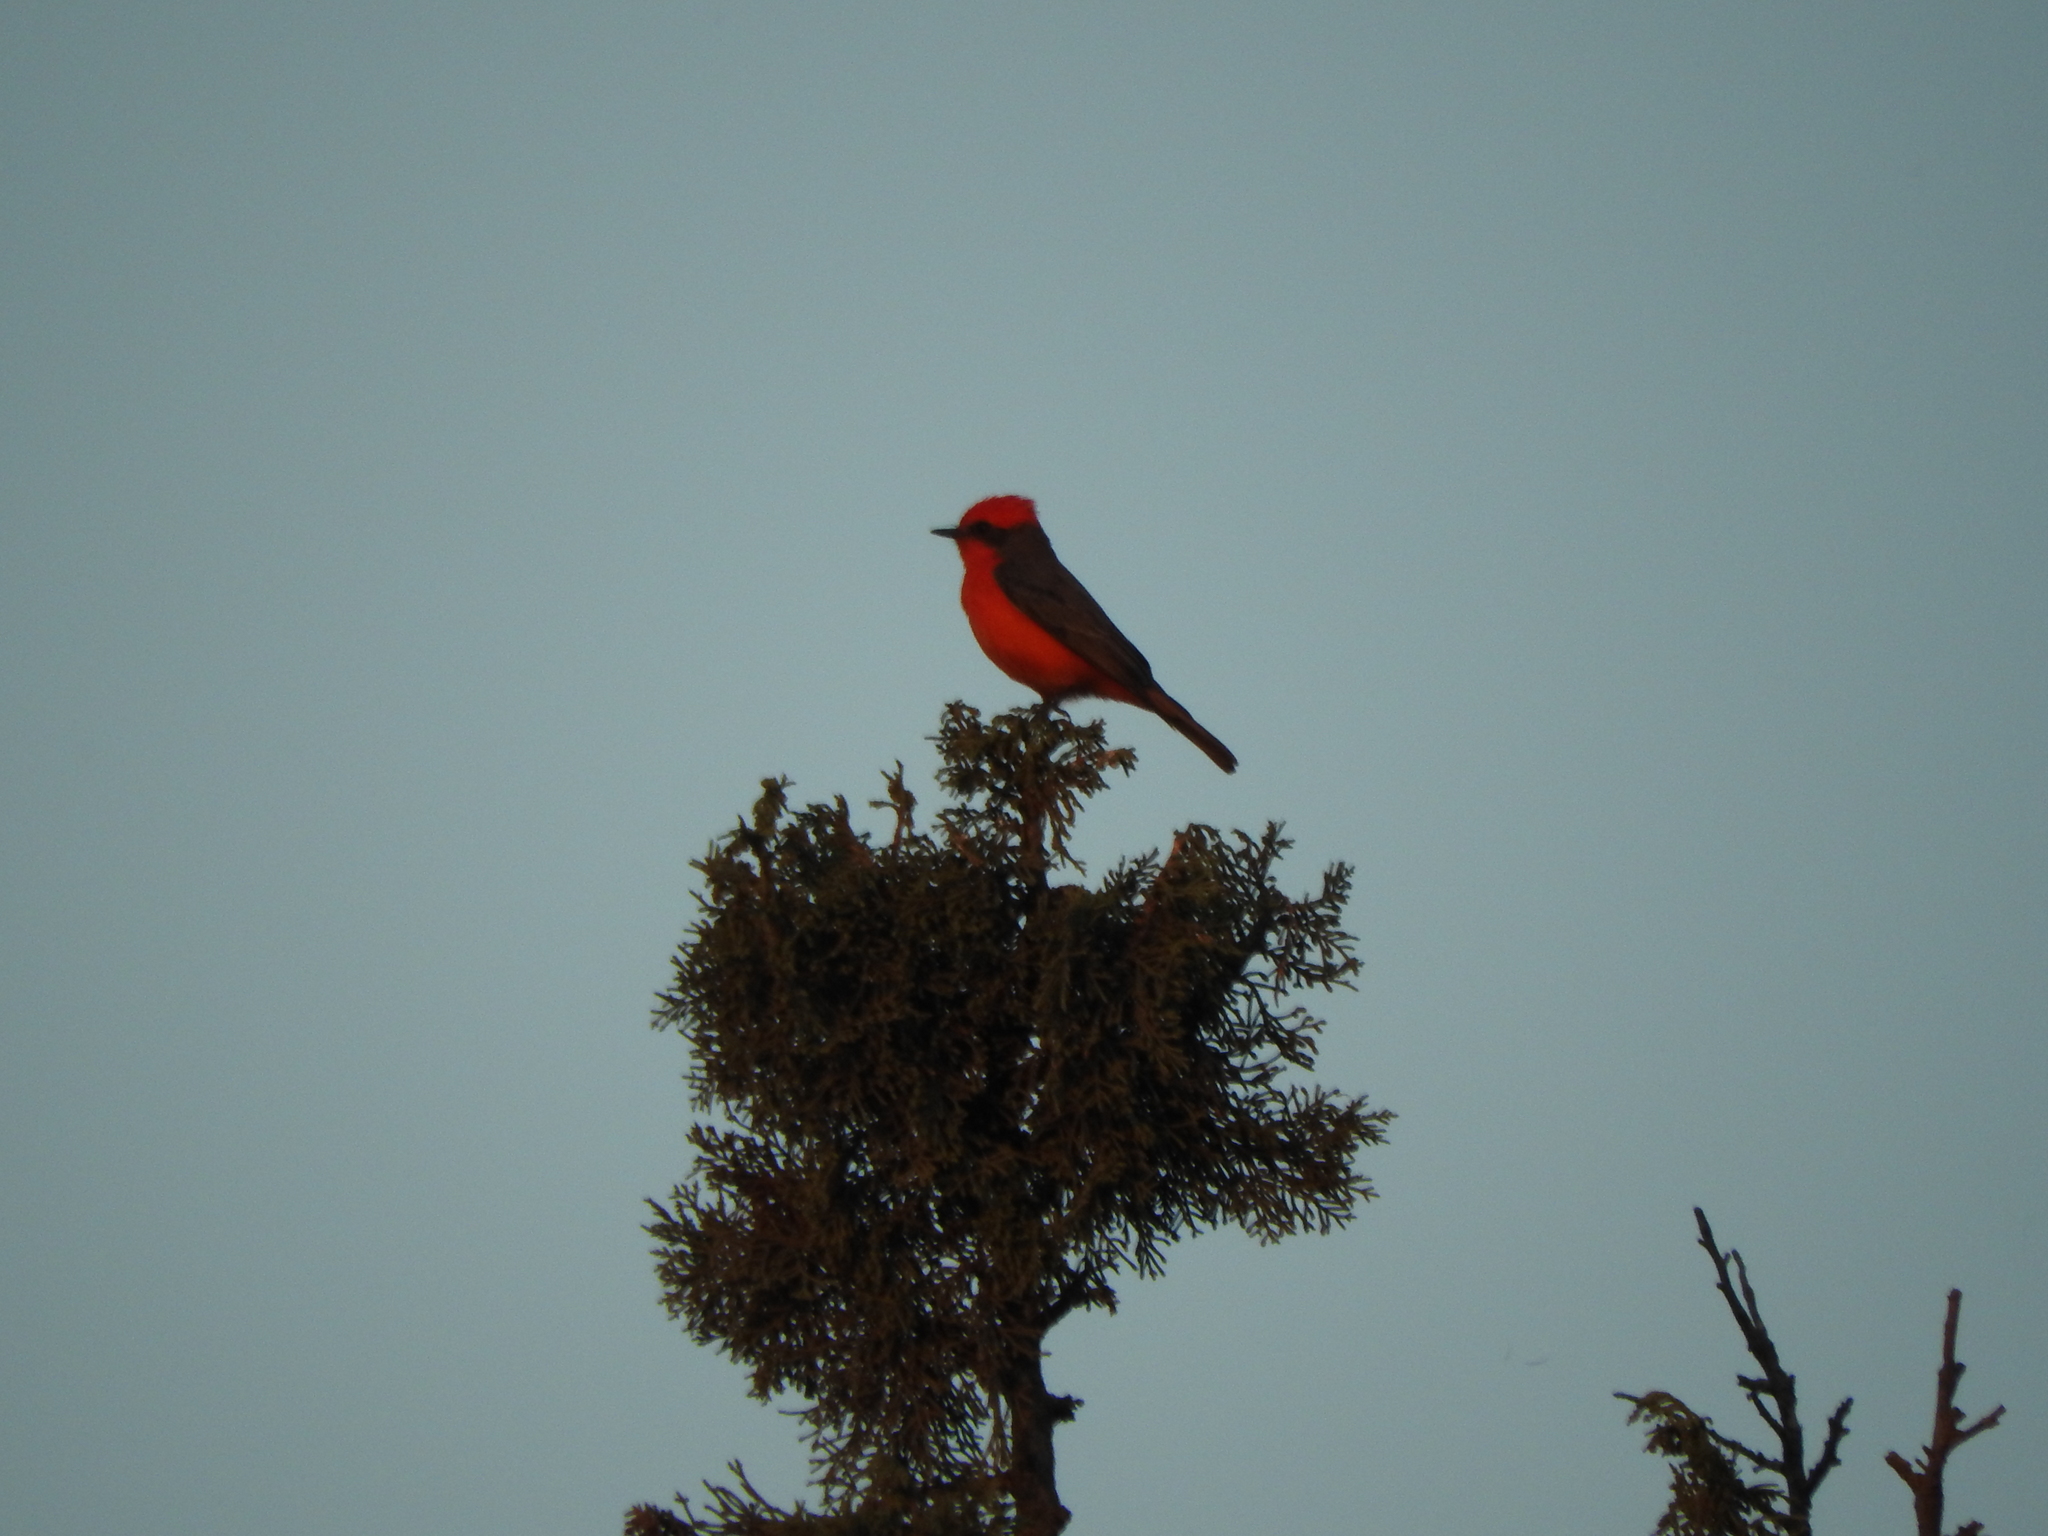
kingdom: Animalia
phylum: Chordata
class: Aves
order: Passeriformes
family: Tyrannidae
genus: Pyrocephalus
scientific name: Pyrocephalus rubinus
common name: Vermilion flycatcher
